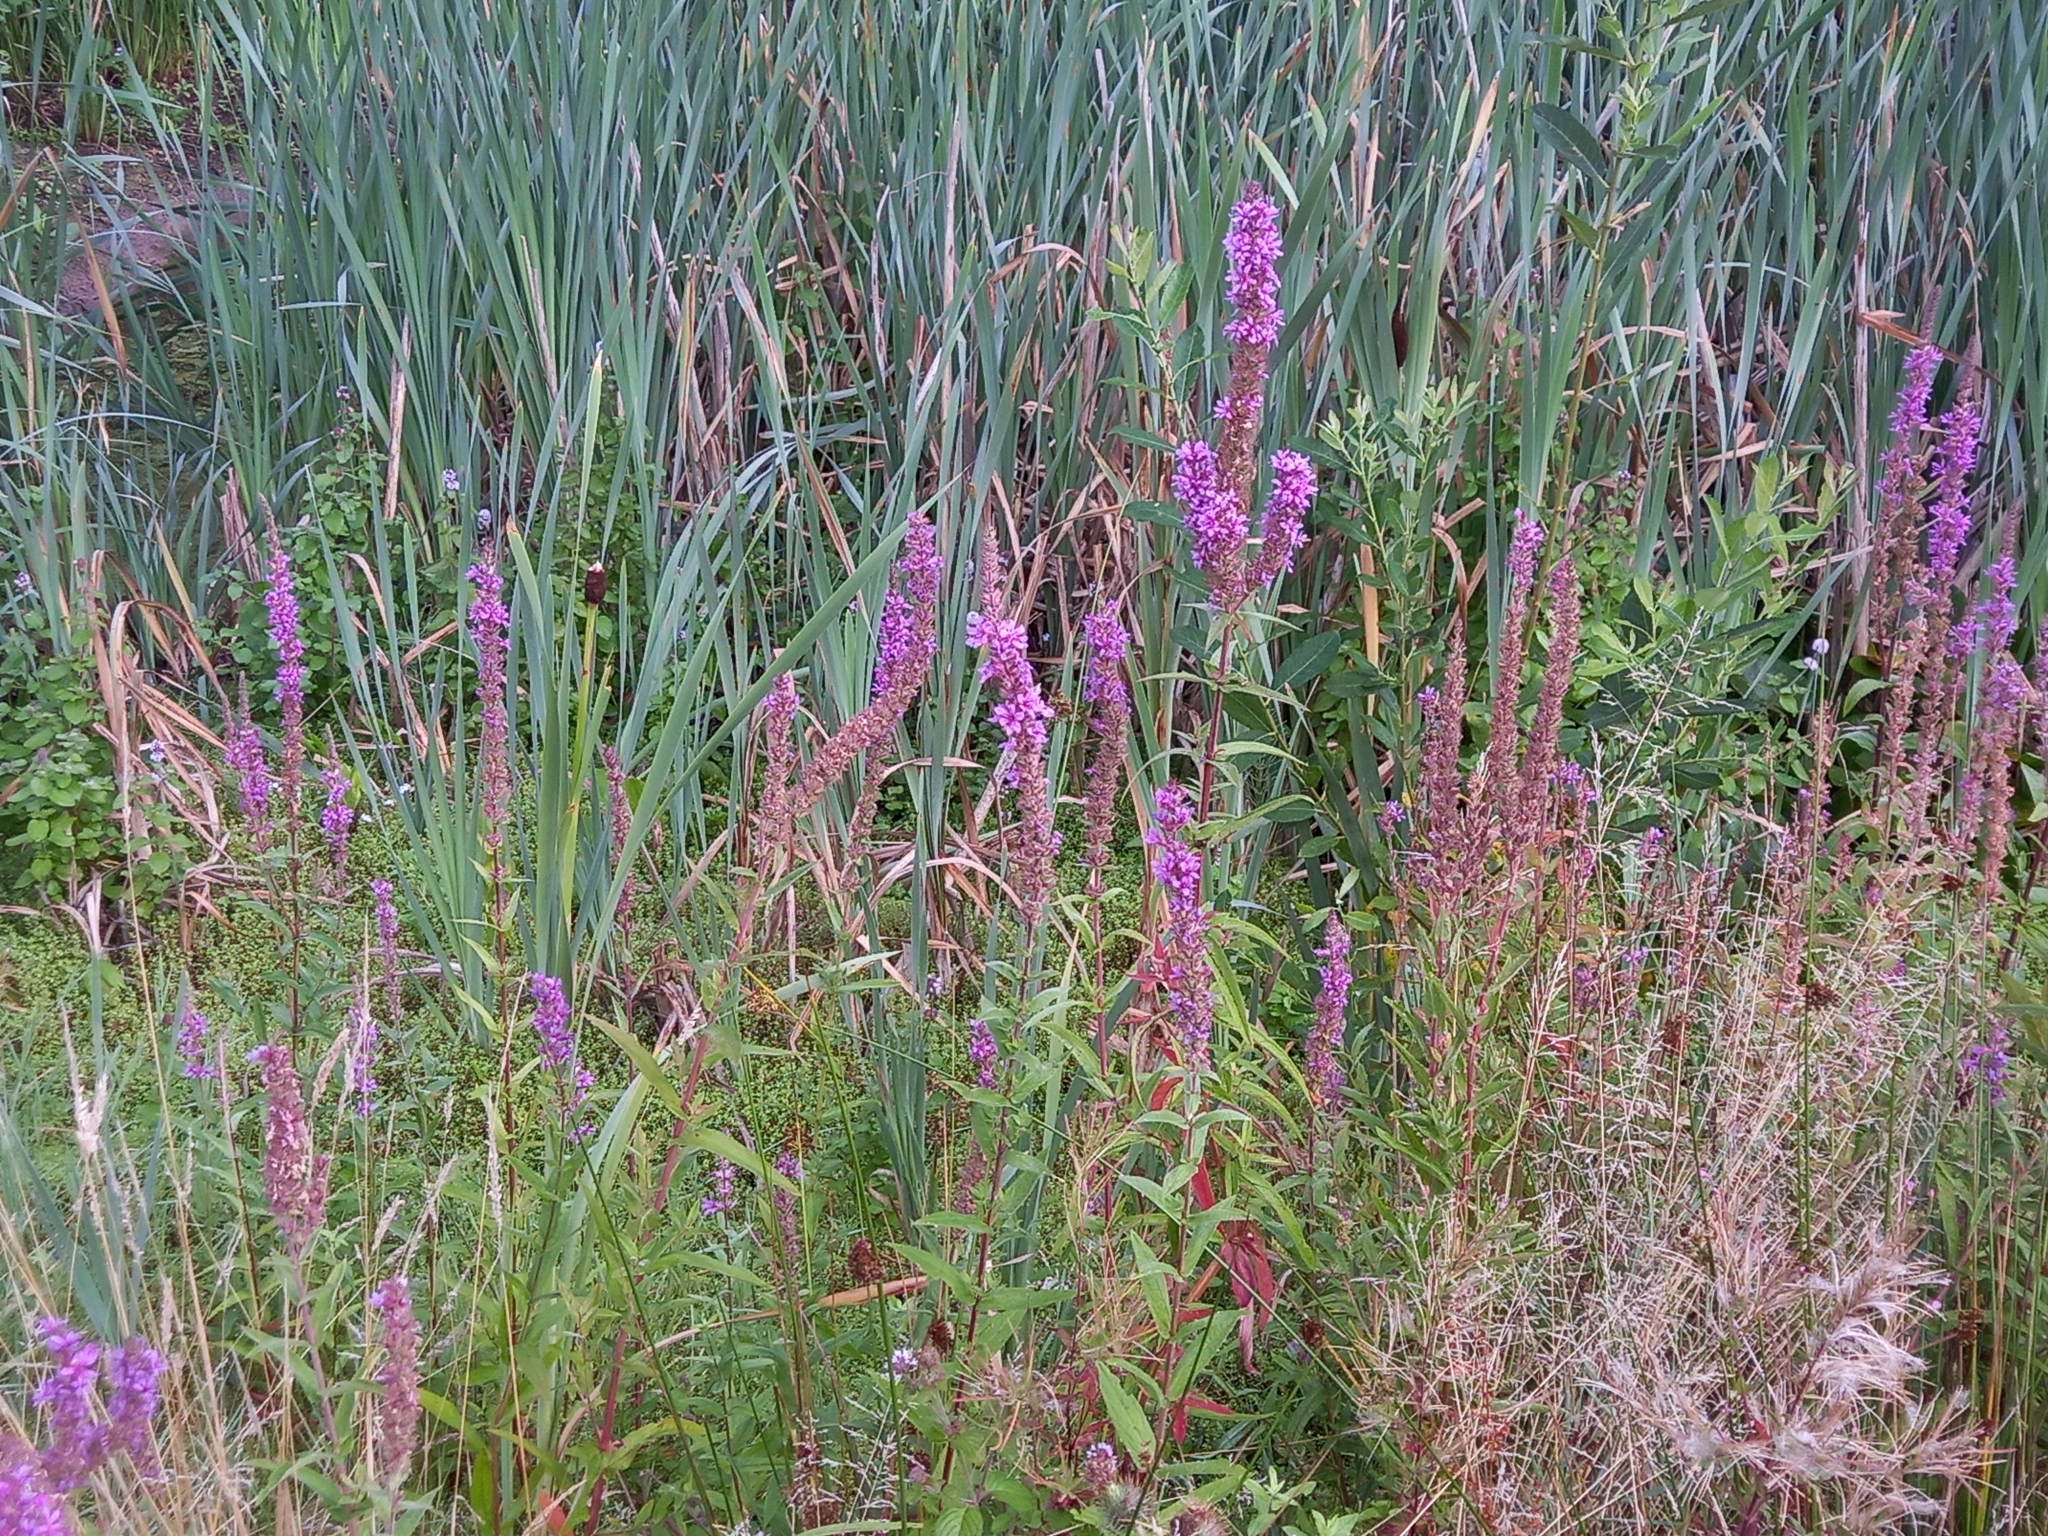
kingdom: Plantae
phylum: Tracheophyta
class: Magnoliopsida
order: Myrtales
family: Lythraceae
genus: Lythrum
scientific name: Lythrum salicaria
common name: Purple loosestrife
